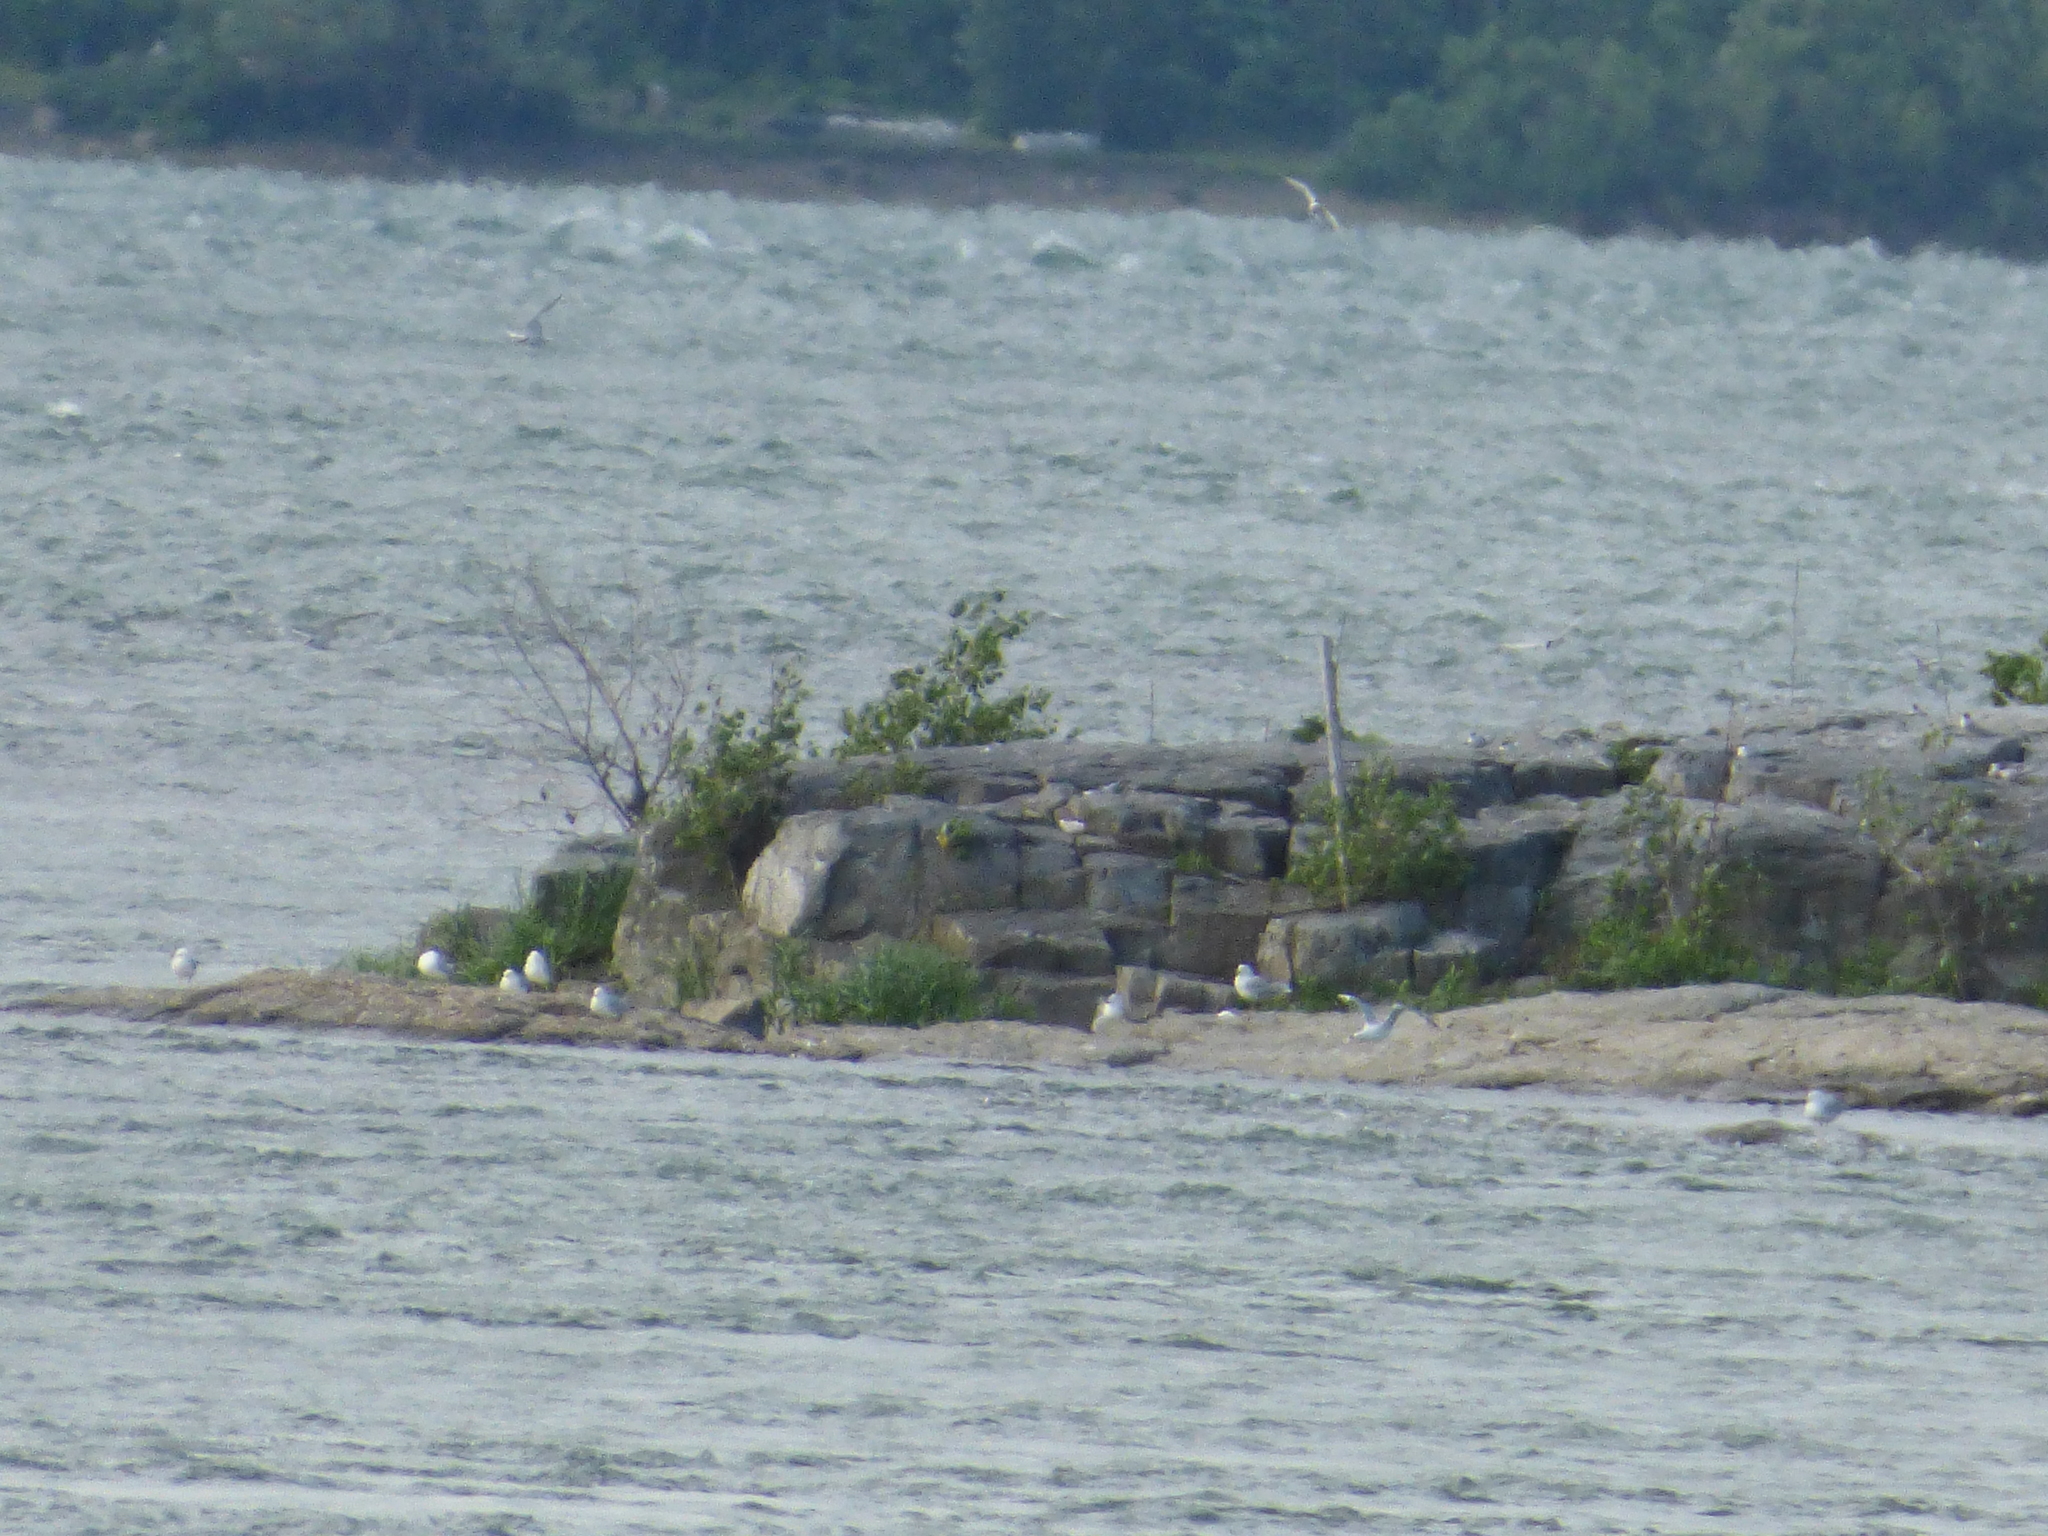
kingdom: Animalia
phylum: Chordata
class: Aves
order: Charadriiformes
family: Laridae
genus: Larus
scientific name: Larus delawarensis
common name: Ring-billed gull
